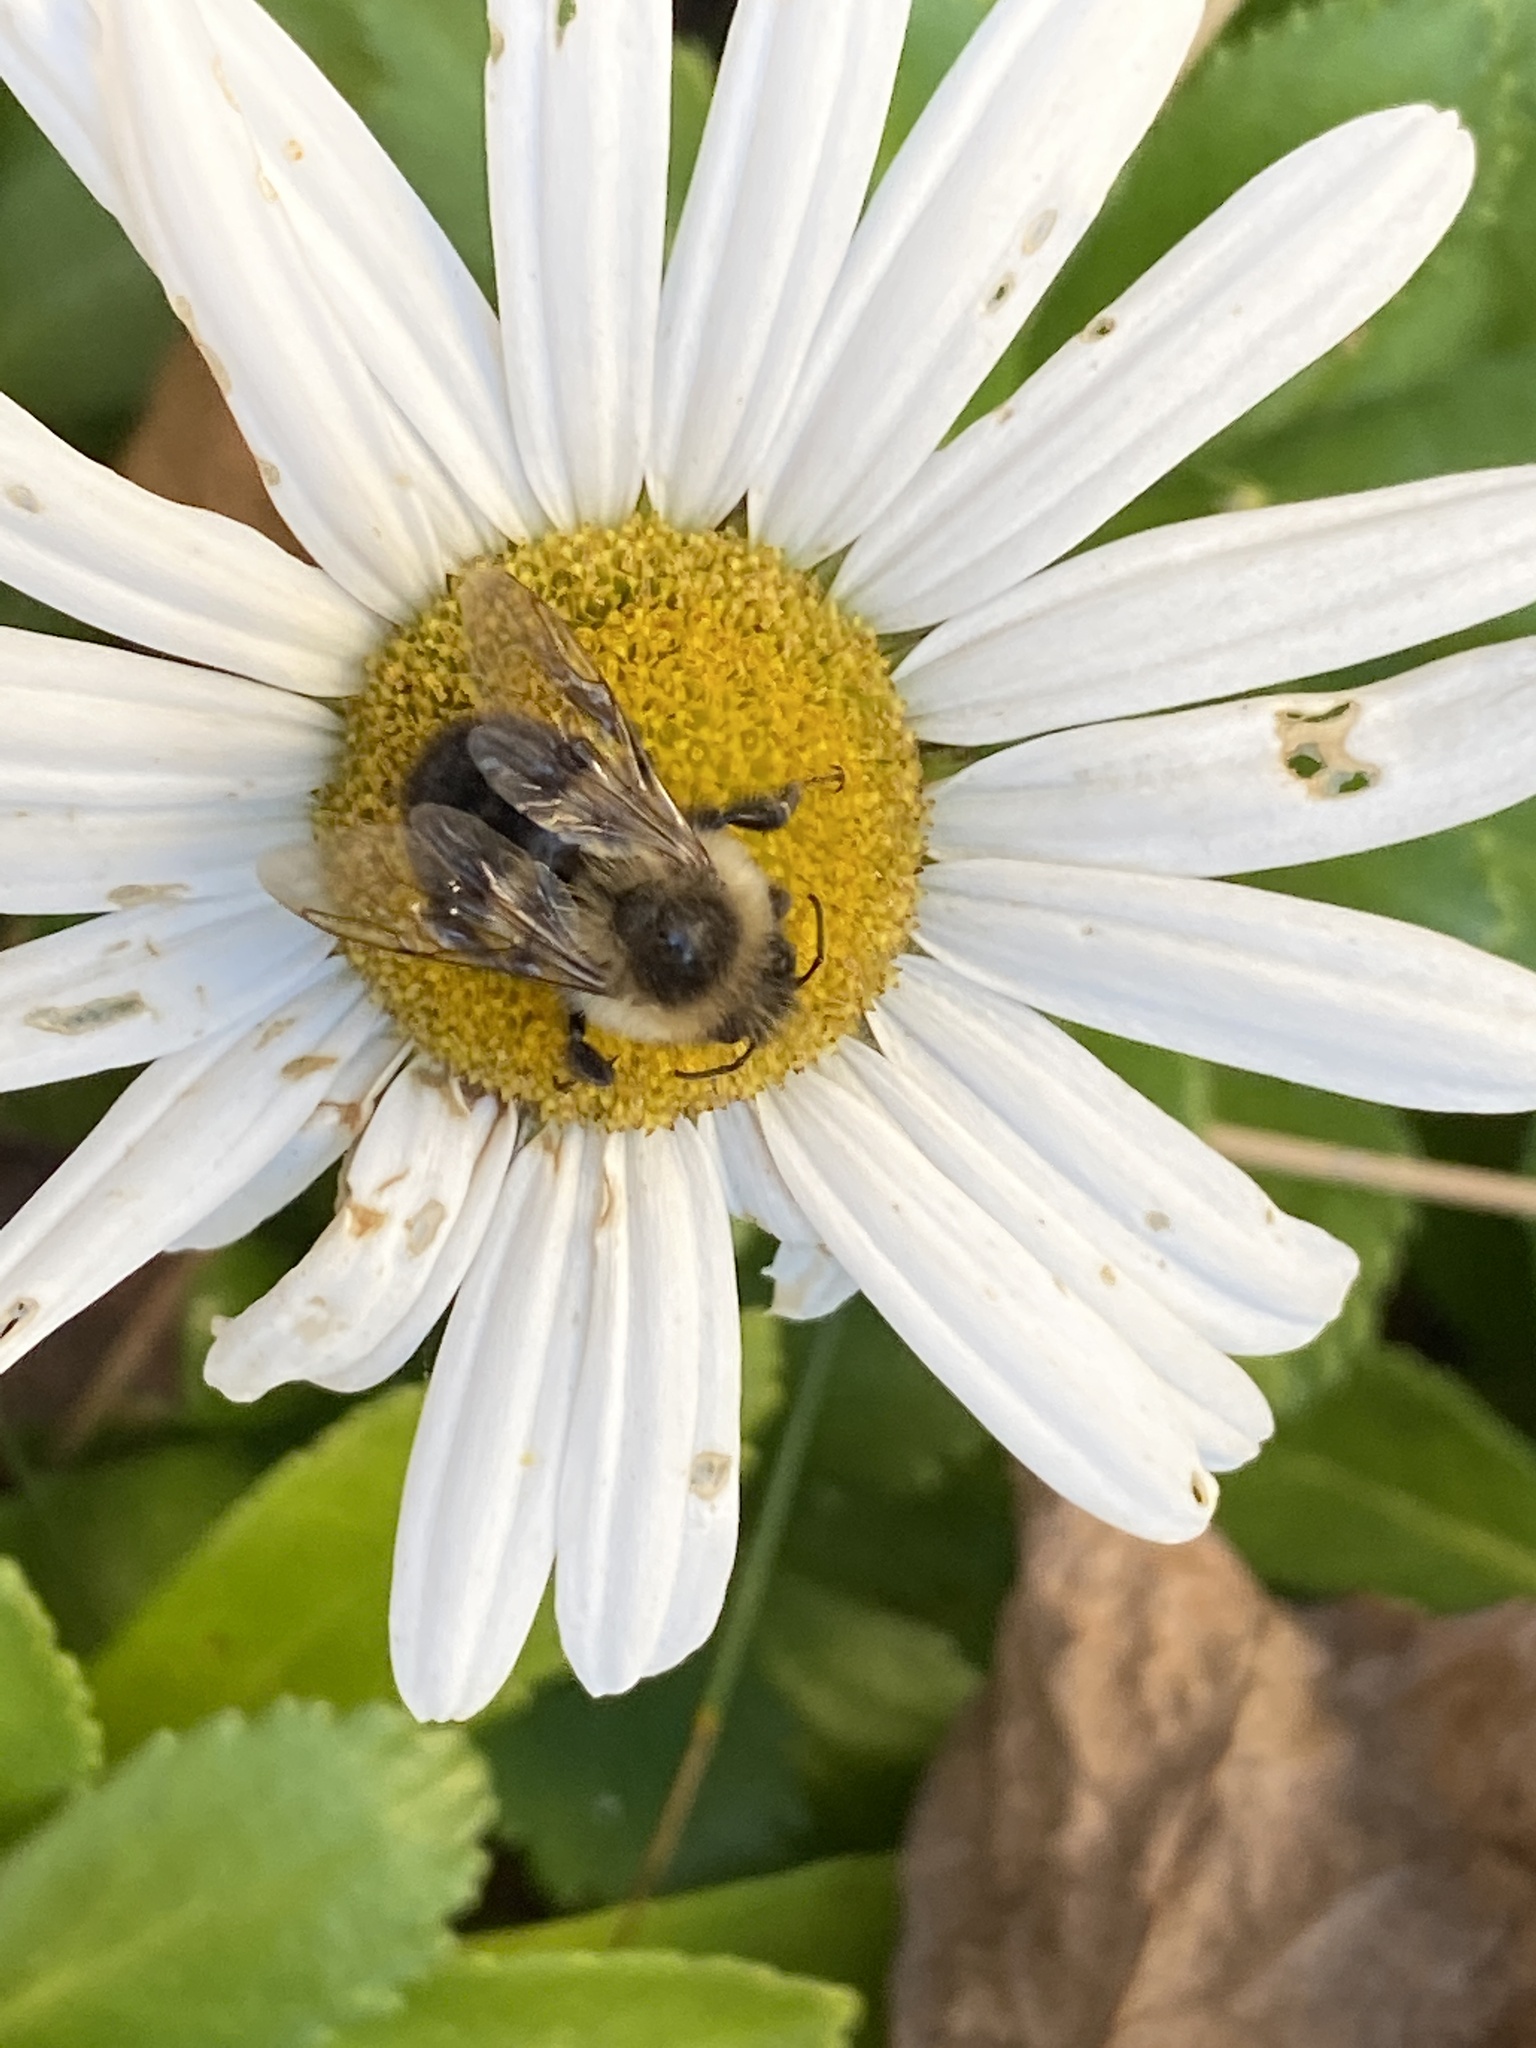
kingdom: Animalia
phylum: Arthropoda
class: Insecta
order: Hymenoptera
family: Apidae
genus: Bombus
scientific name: Bombus impatiens
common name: Common eastern bumble bee
